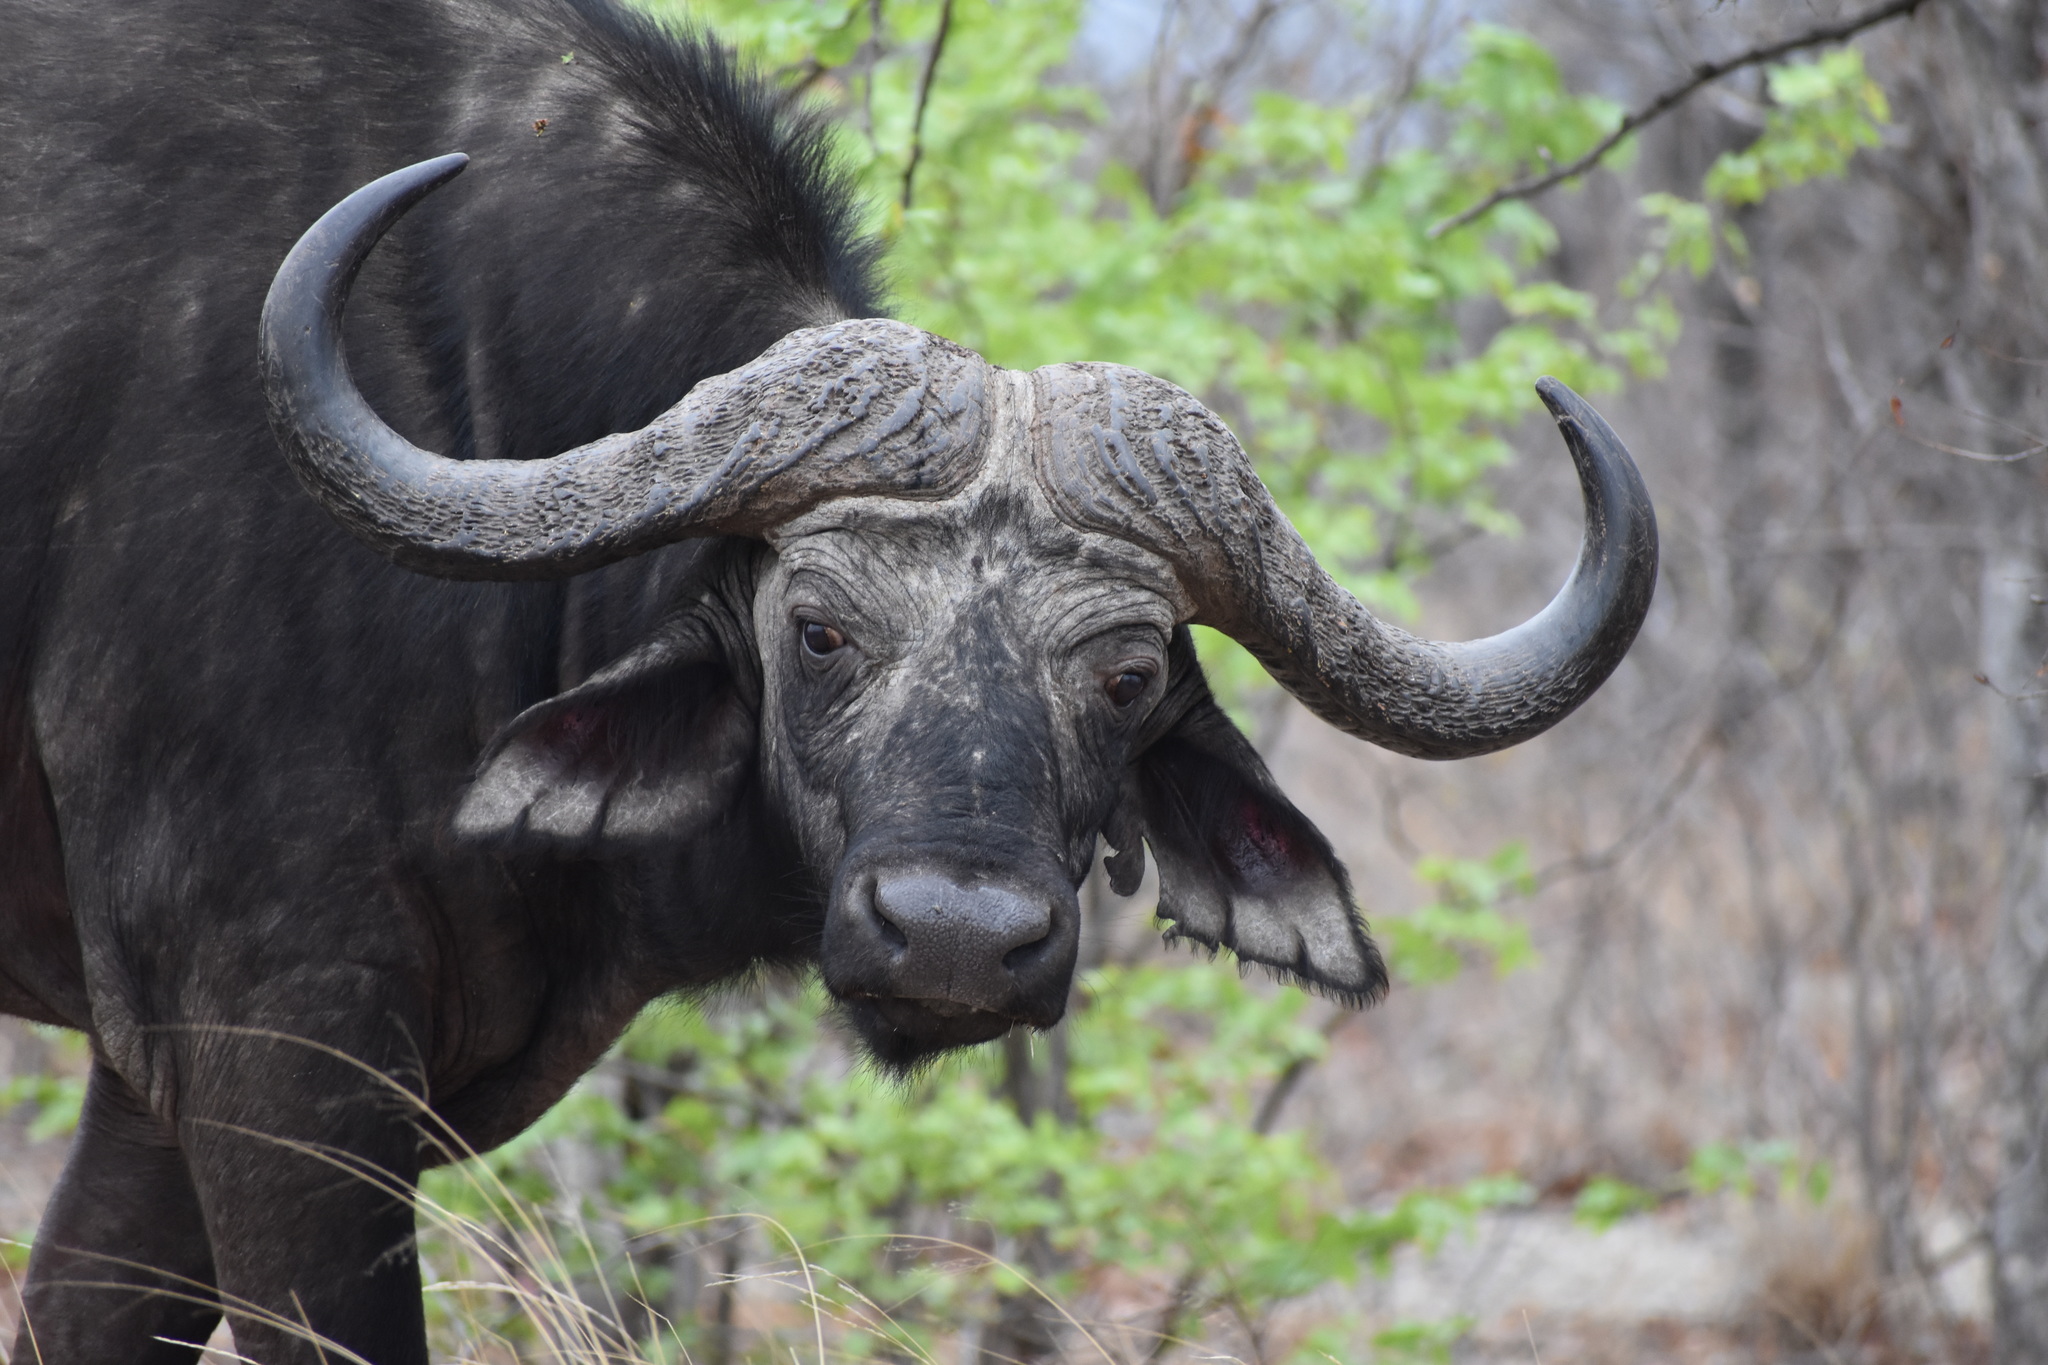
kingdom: Animalia
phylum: Chordata
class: Mammalia
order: Artiodactyla
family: Bovidae
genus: Syncerus
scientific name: Syncerus caffer
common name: African buffalo
